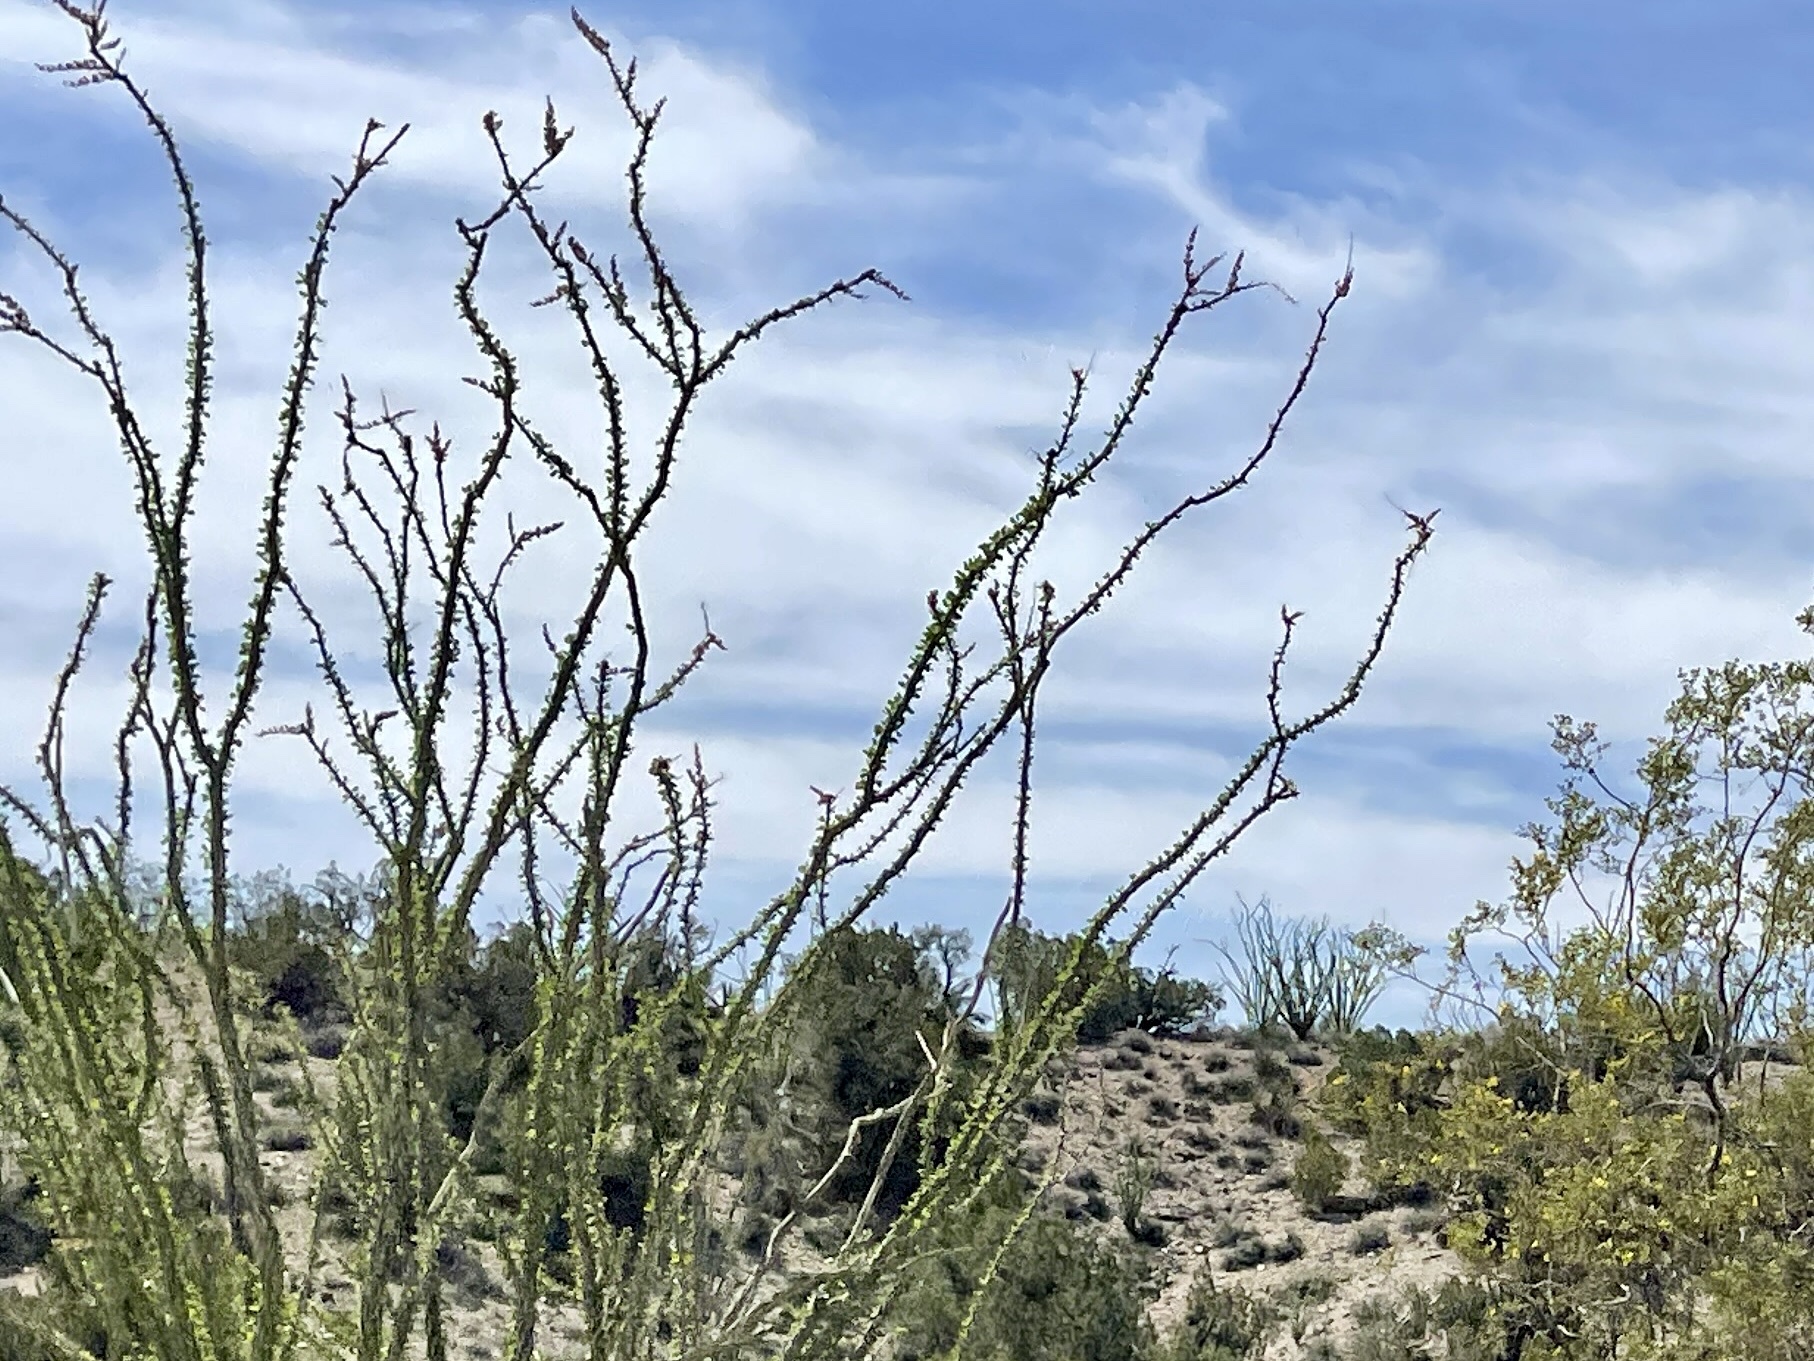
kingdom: Plantae
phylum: Tracheophyta
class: Magnoliopsida
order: Ericales
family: Fouquieriaceae
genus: Fouquieria
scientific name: Fouquieria splendens
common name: Vine-cactus
